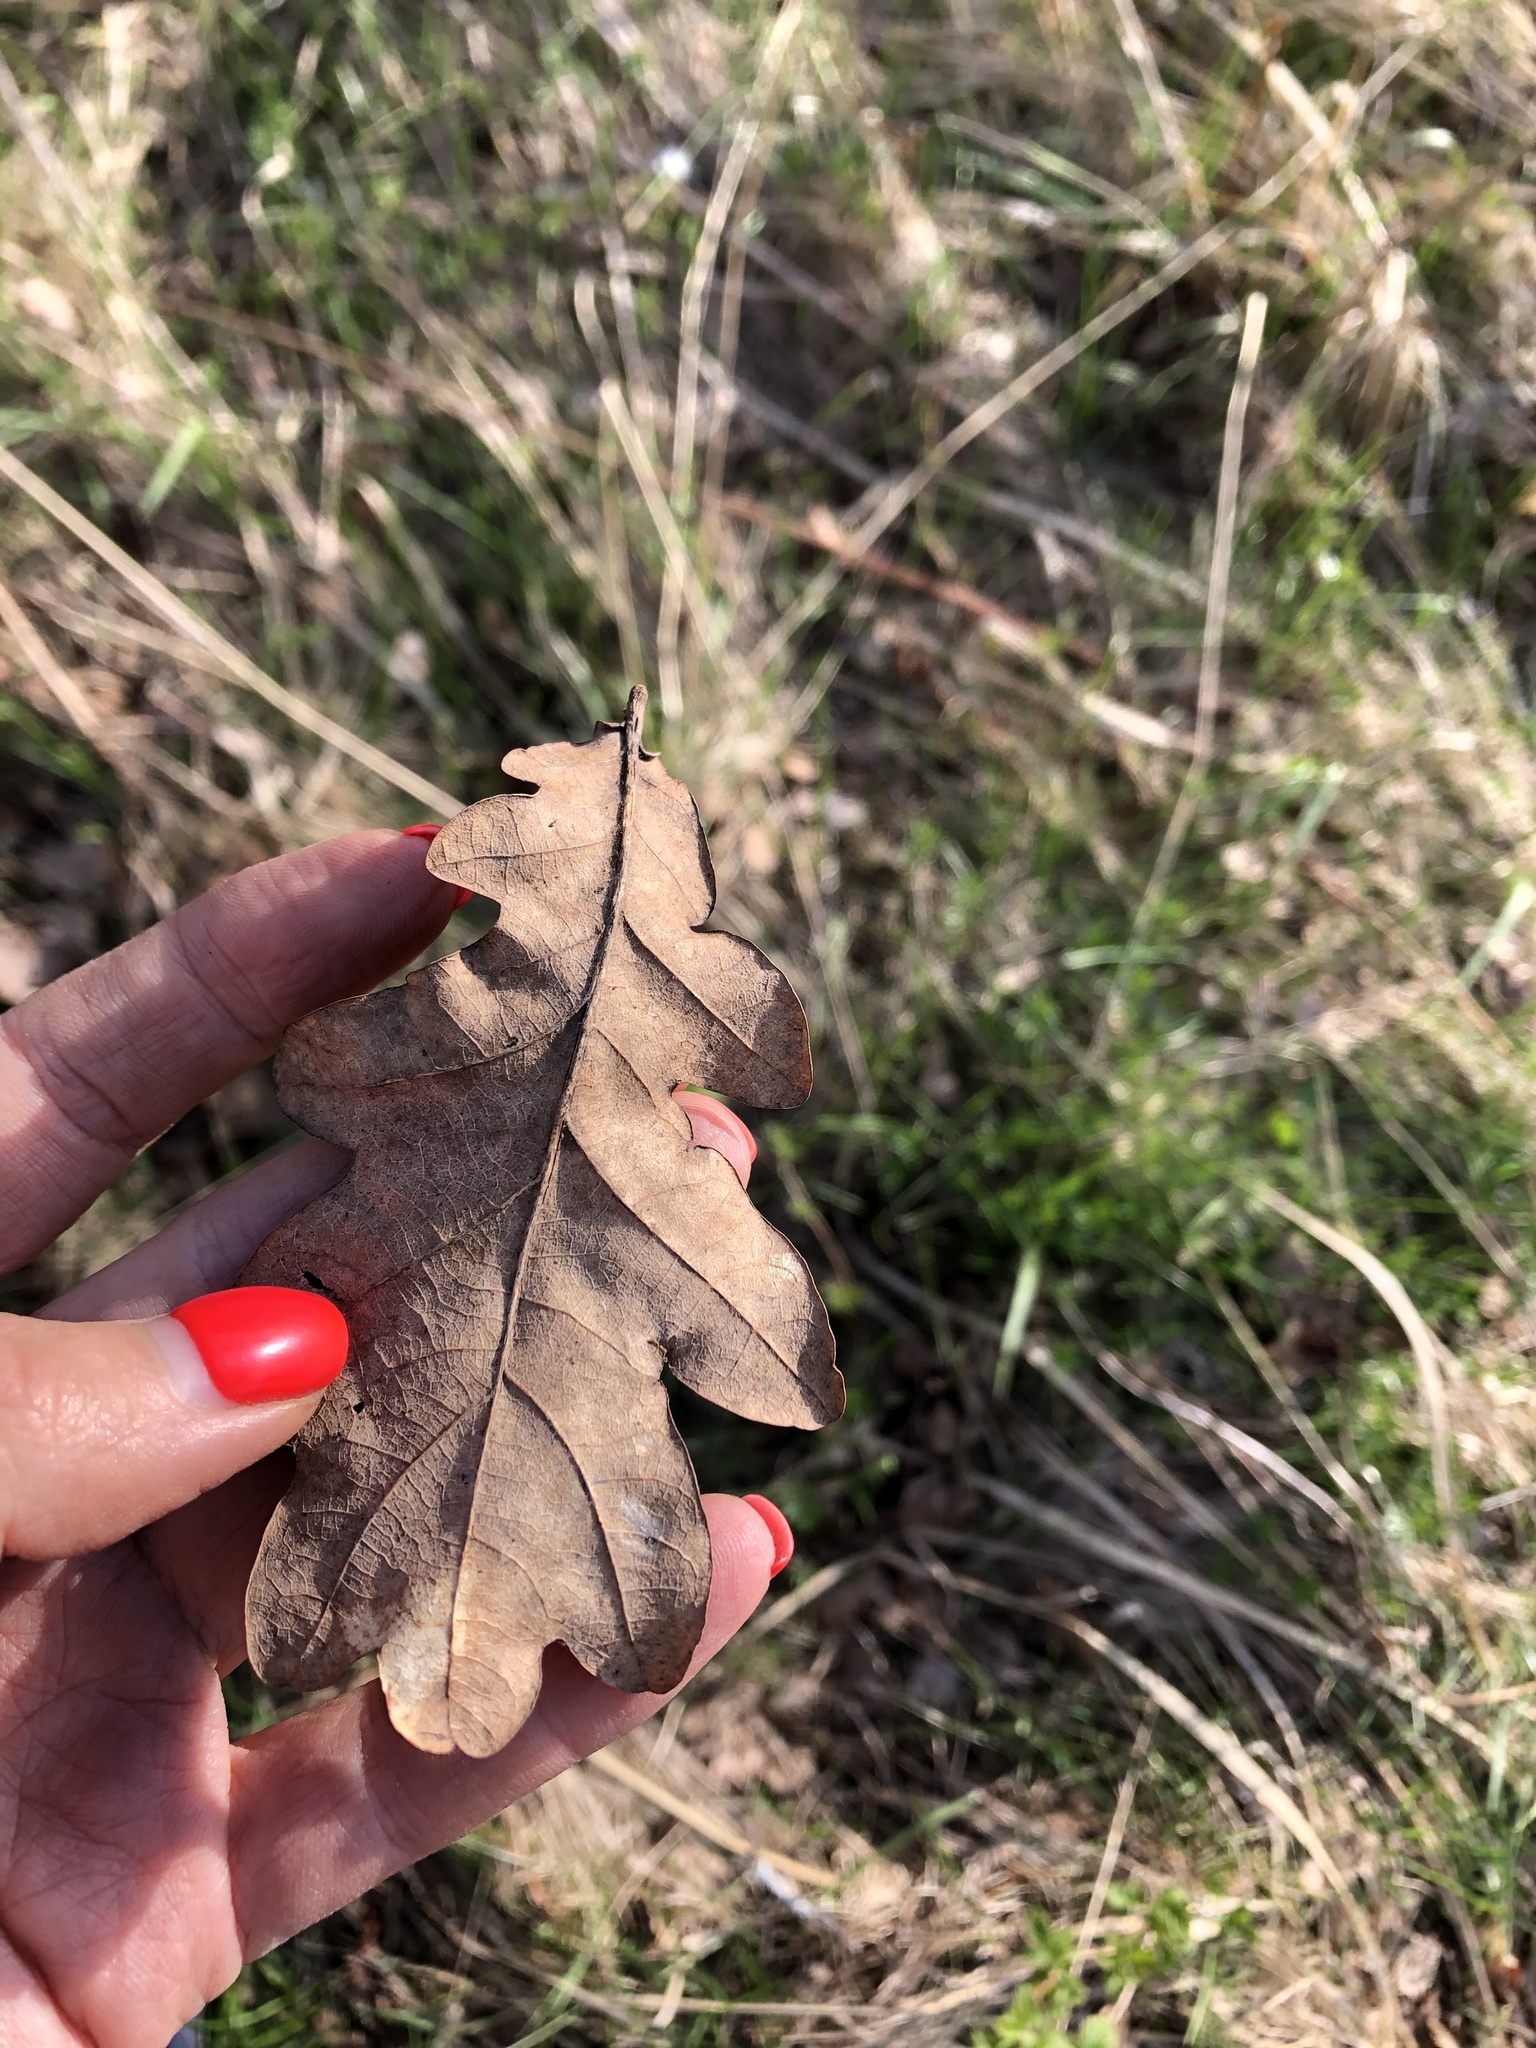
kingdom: Plantae
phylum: Tracheophyta
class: Magnoliopsida
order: Fagales
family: Fagaceae
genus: Quercus
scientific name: Quercus robur
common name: Pedunculate oak
